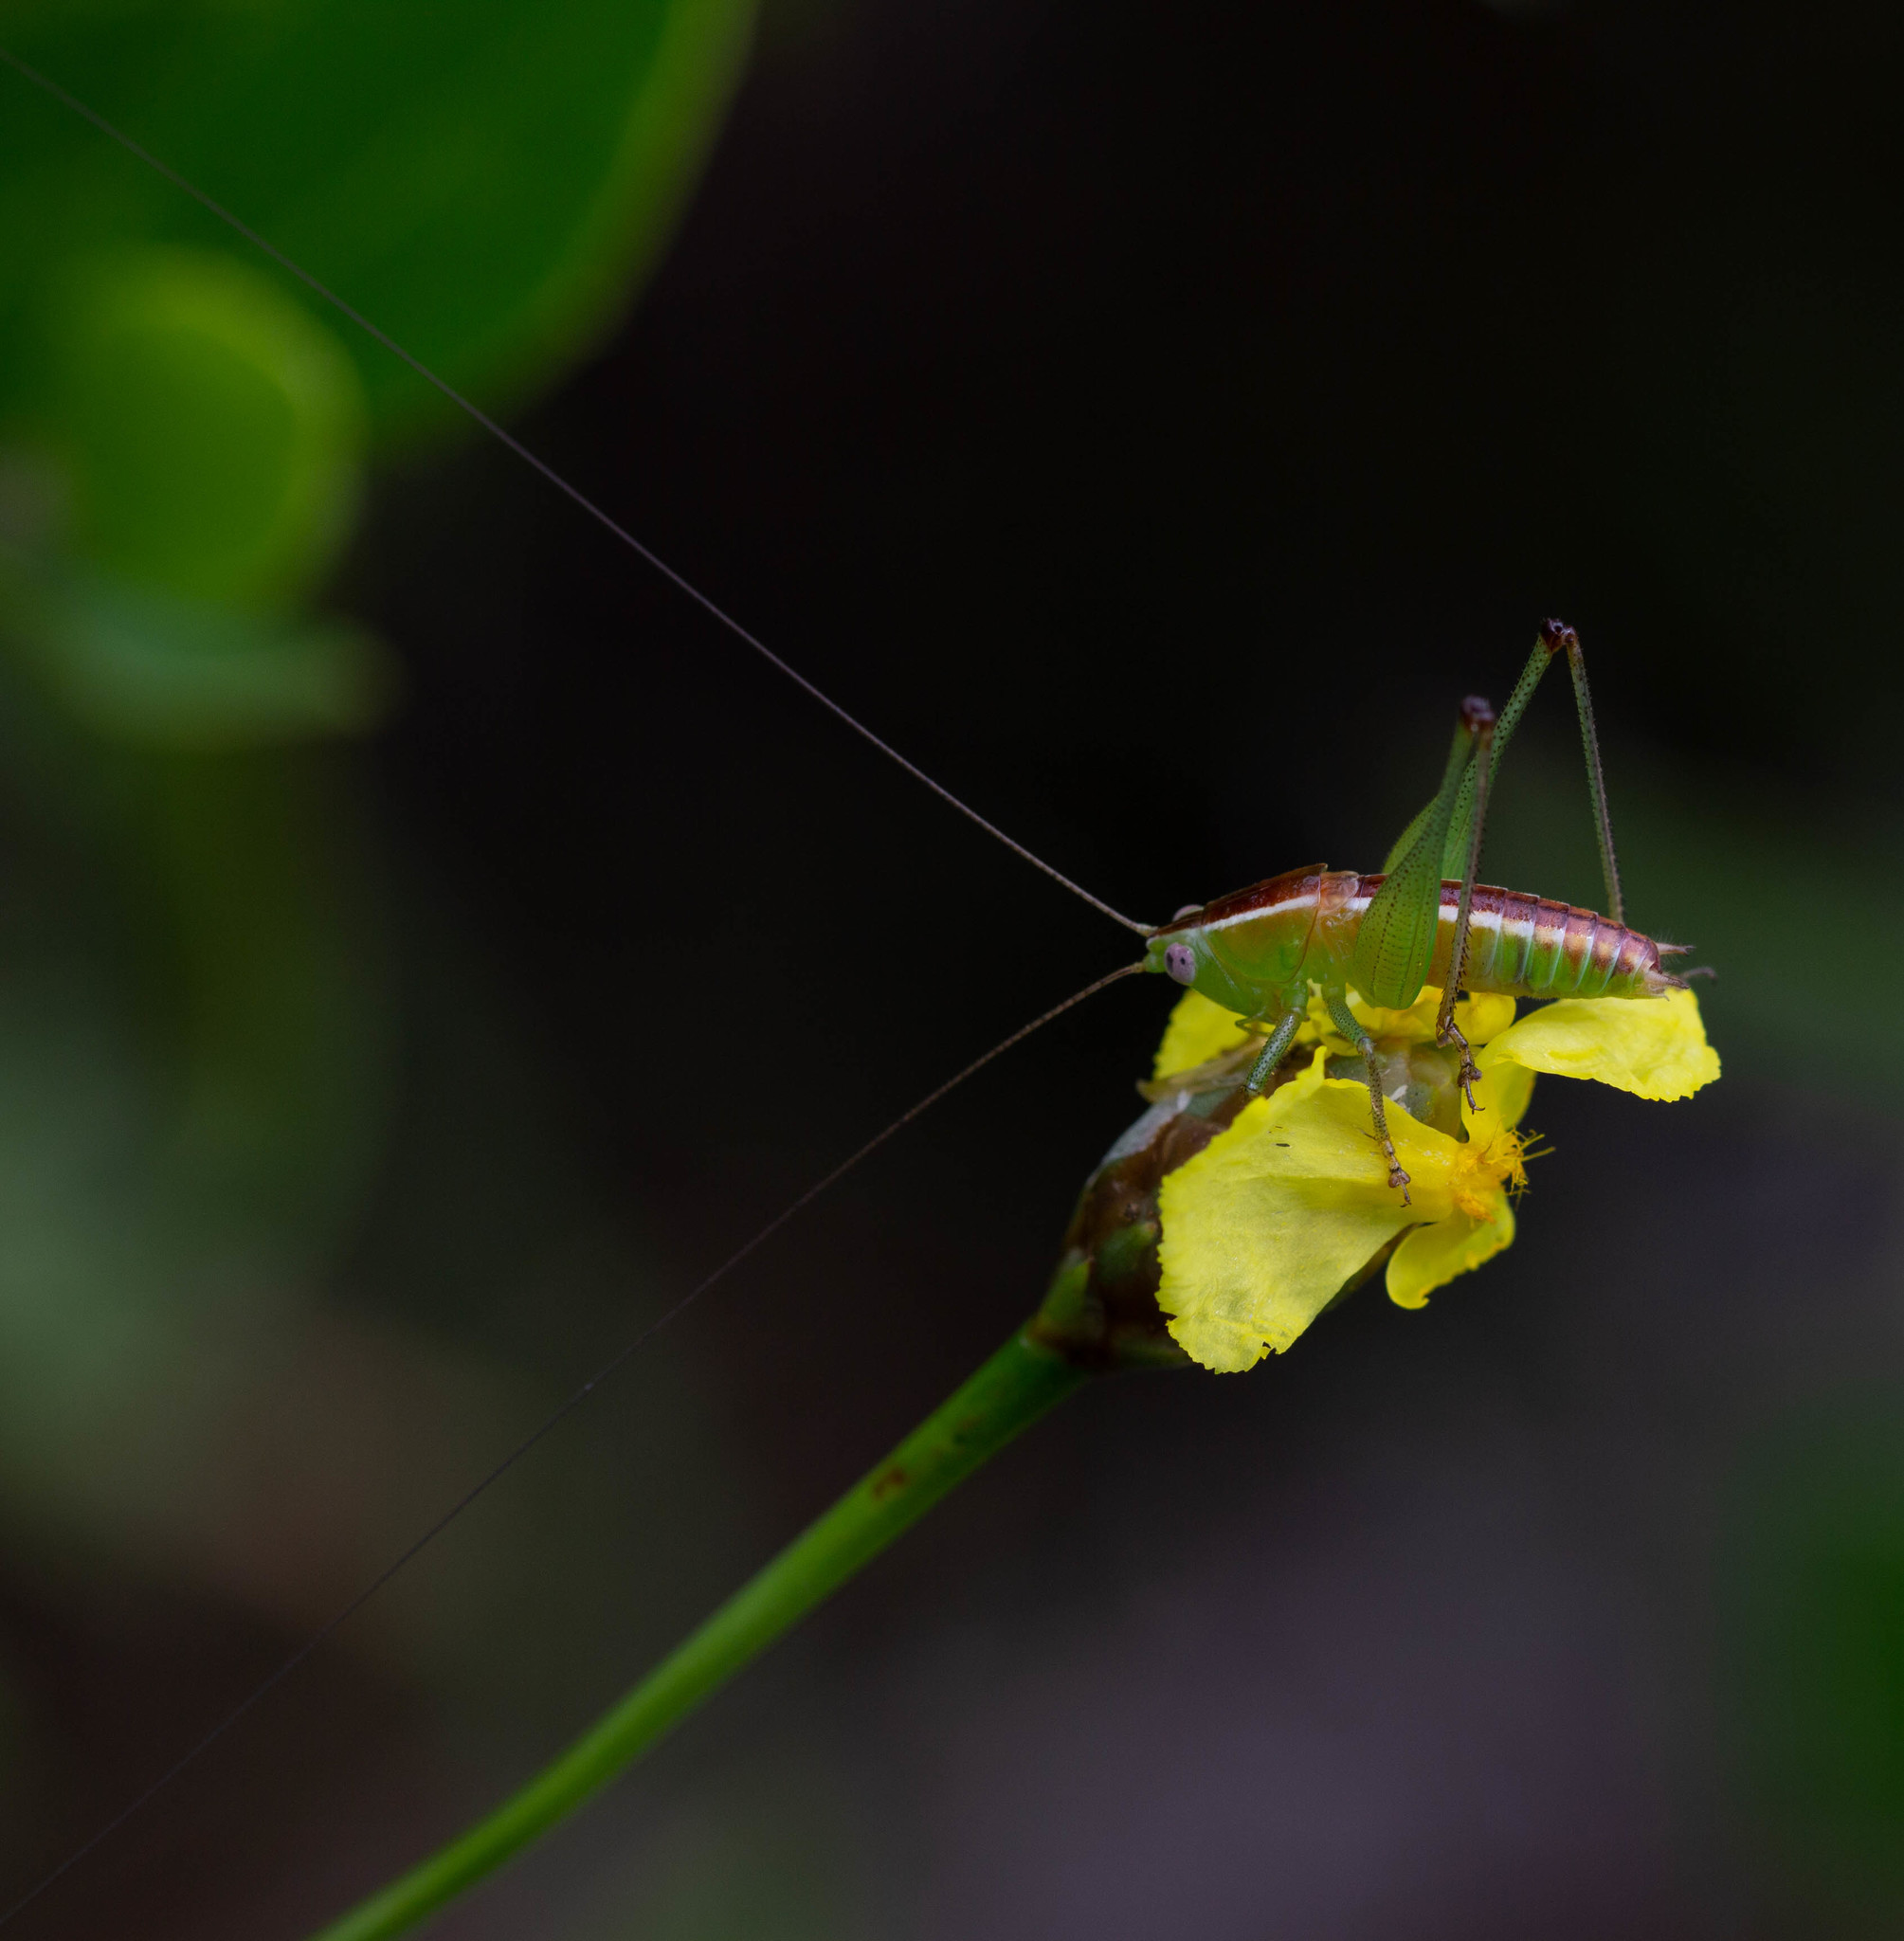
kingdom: Animalia
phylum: Arthropoda
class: Insecta
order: Orthoptera
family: Tettigoniidae
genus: Odontoxiphidium
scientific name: Odontoxiphidium apterum
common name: Wingless meadow katydid
